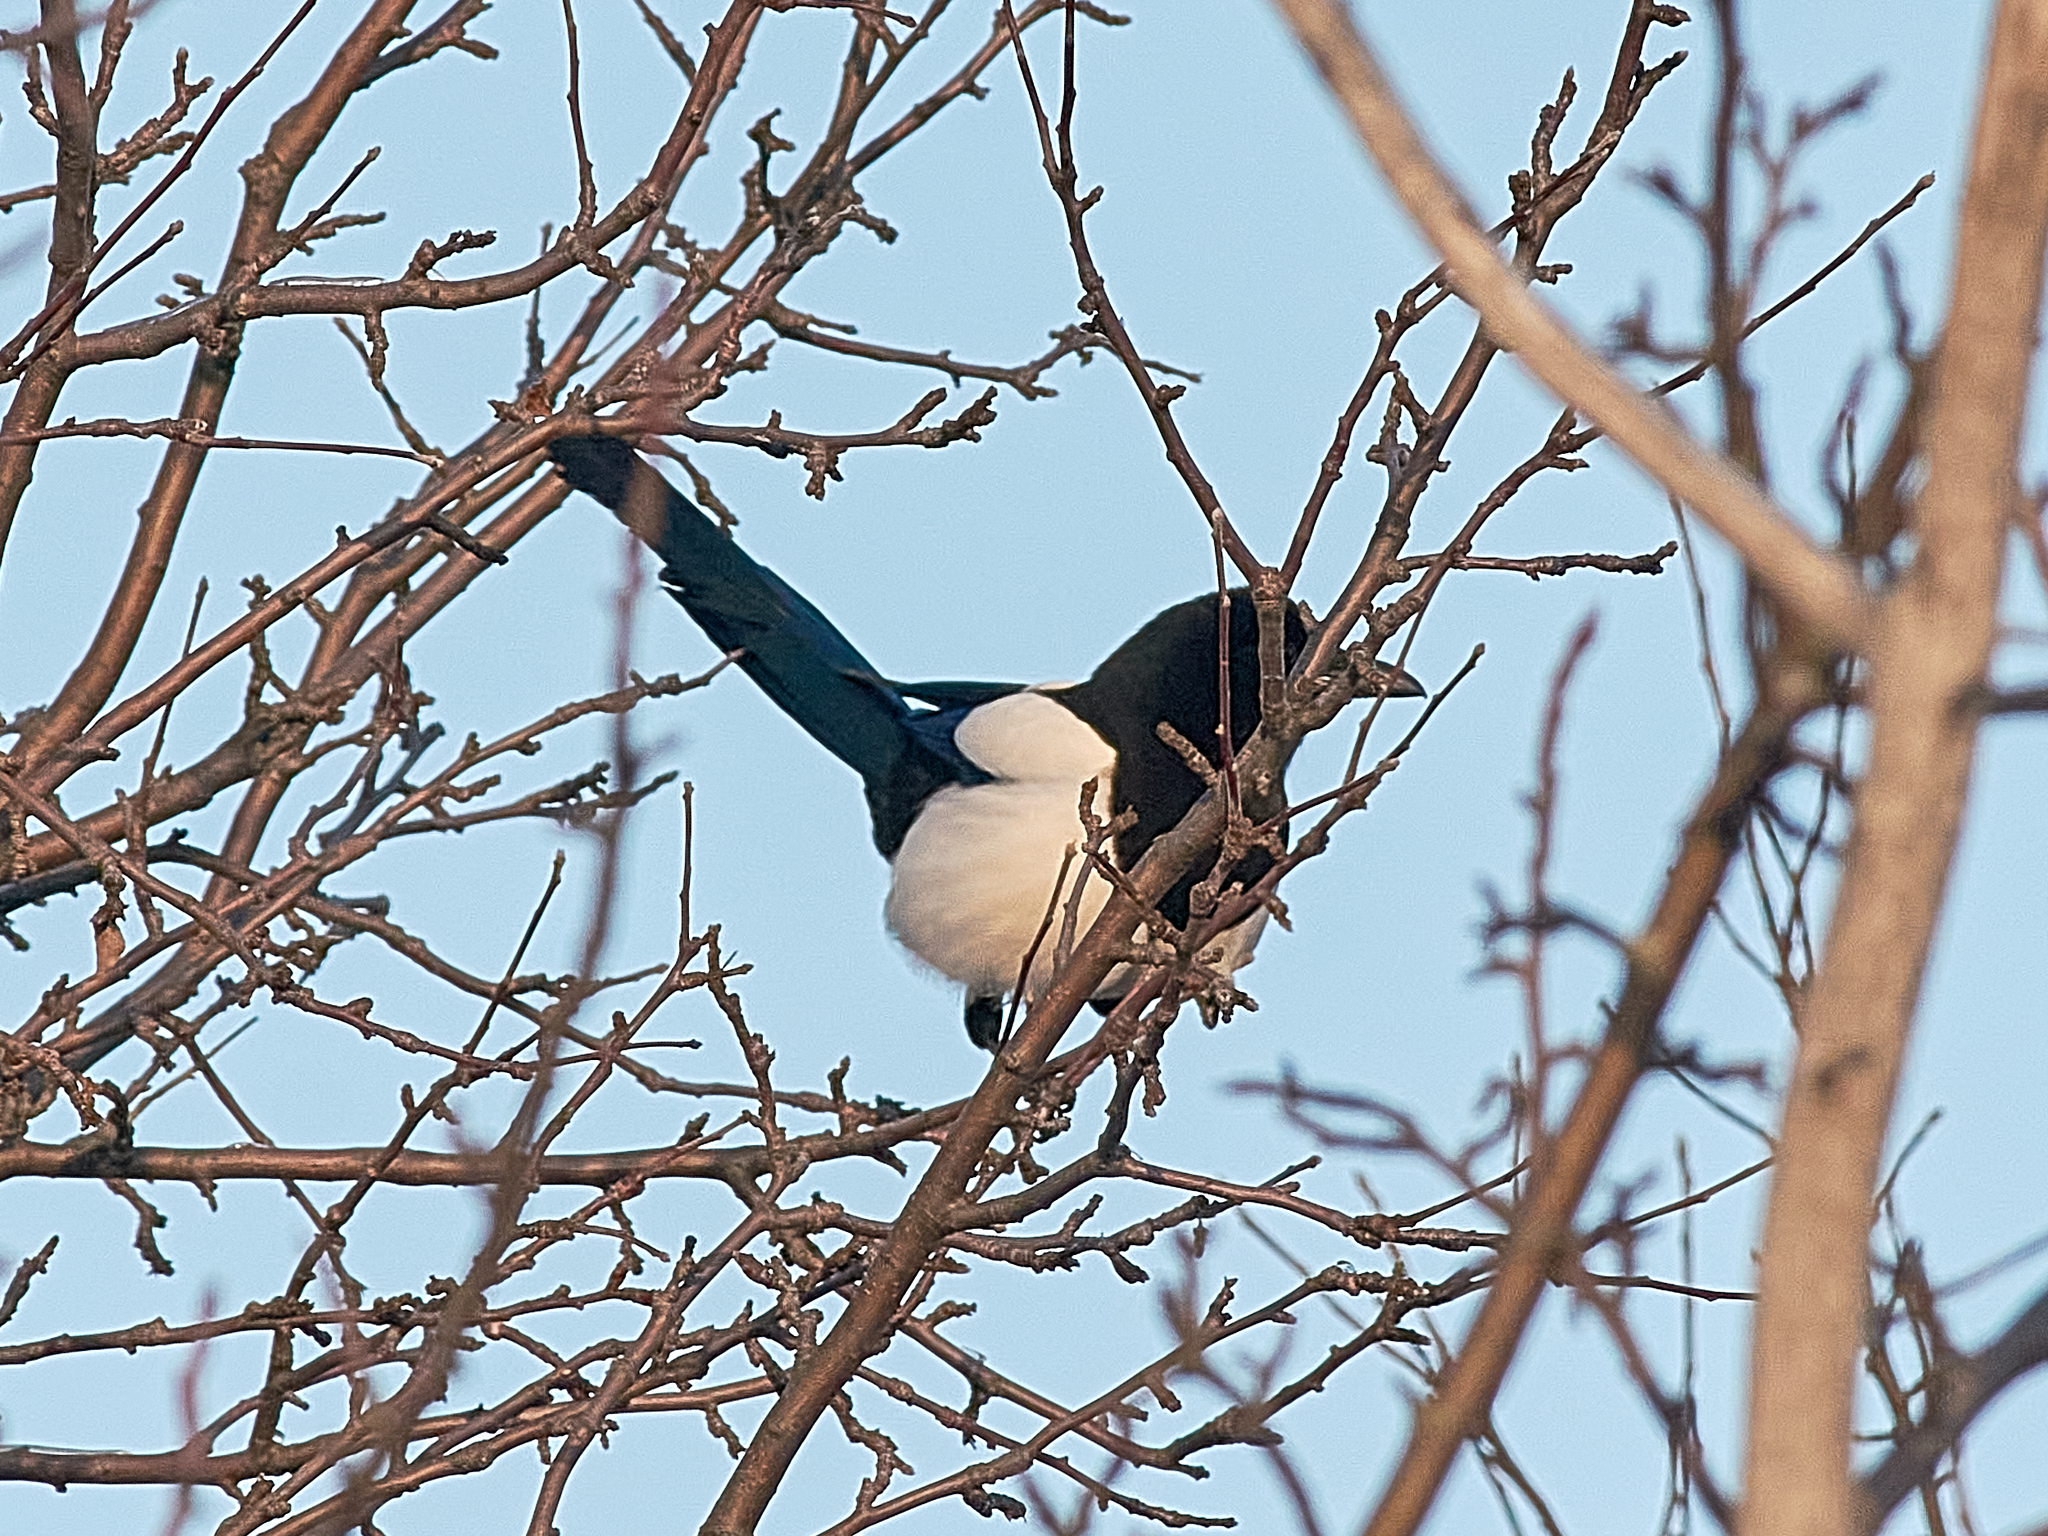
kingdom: Animalia
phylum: Chordata
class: Aves
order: Passeriformes
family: Corvidae
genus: Pica
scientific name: Pica pica
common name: Eurasian magpie
